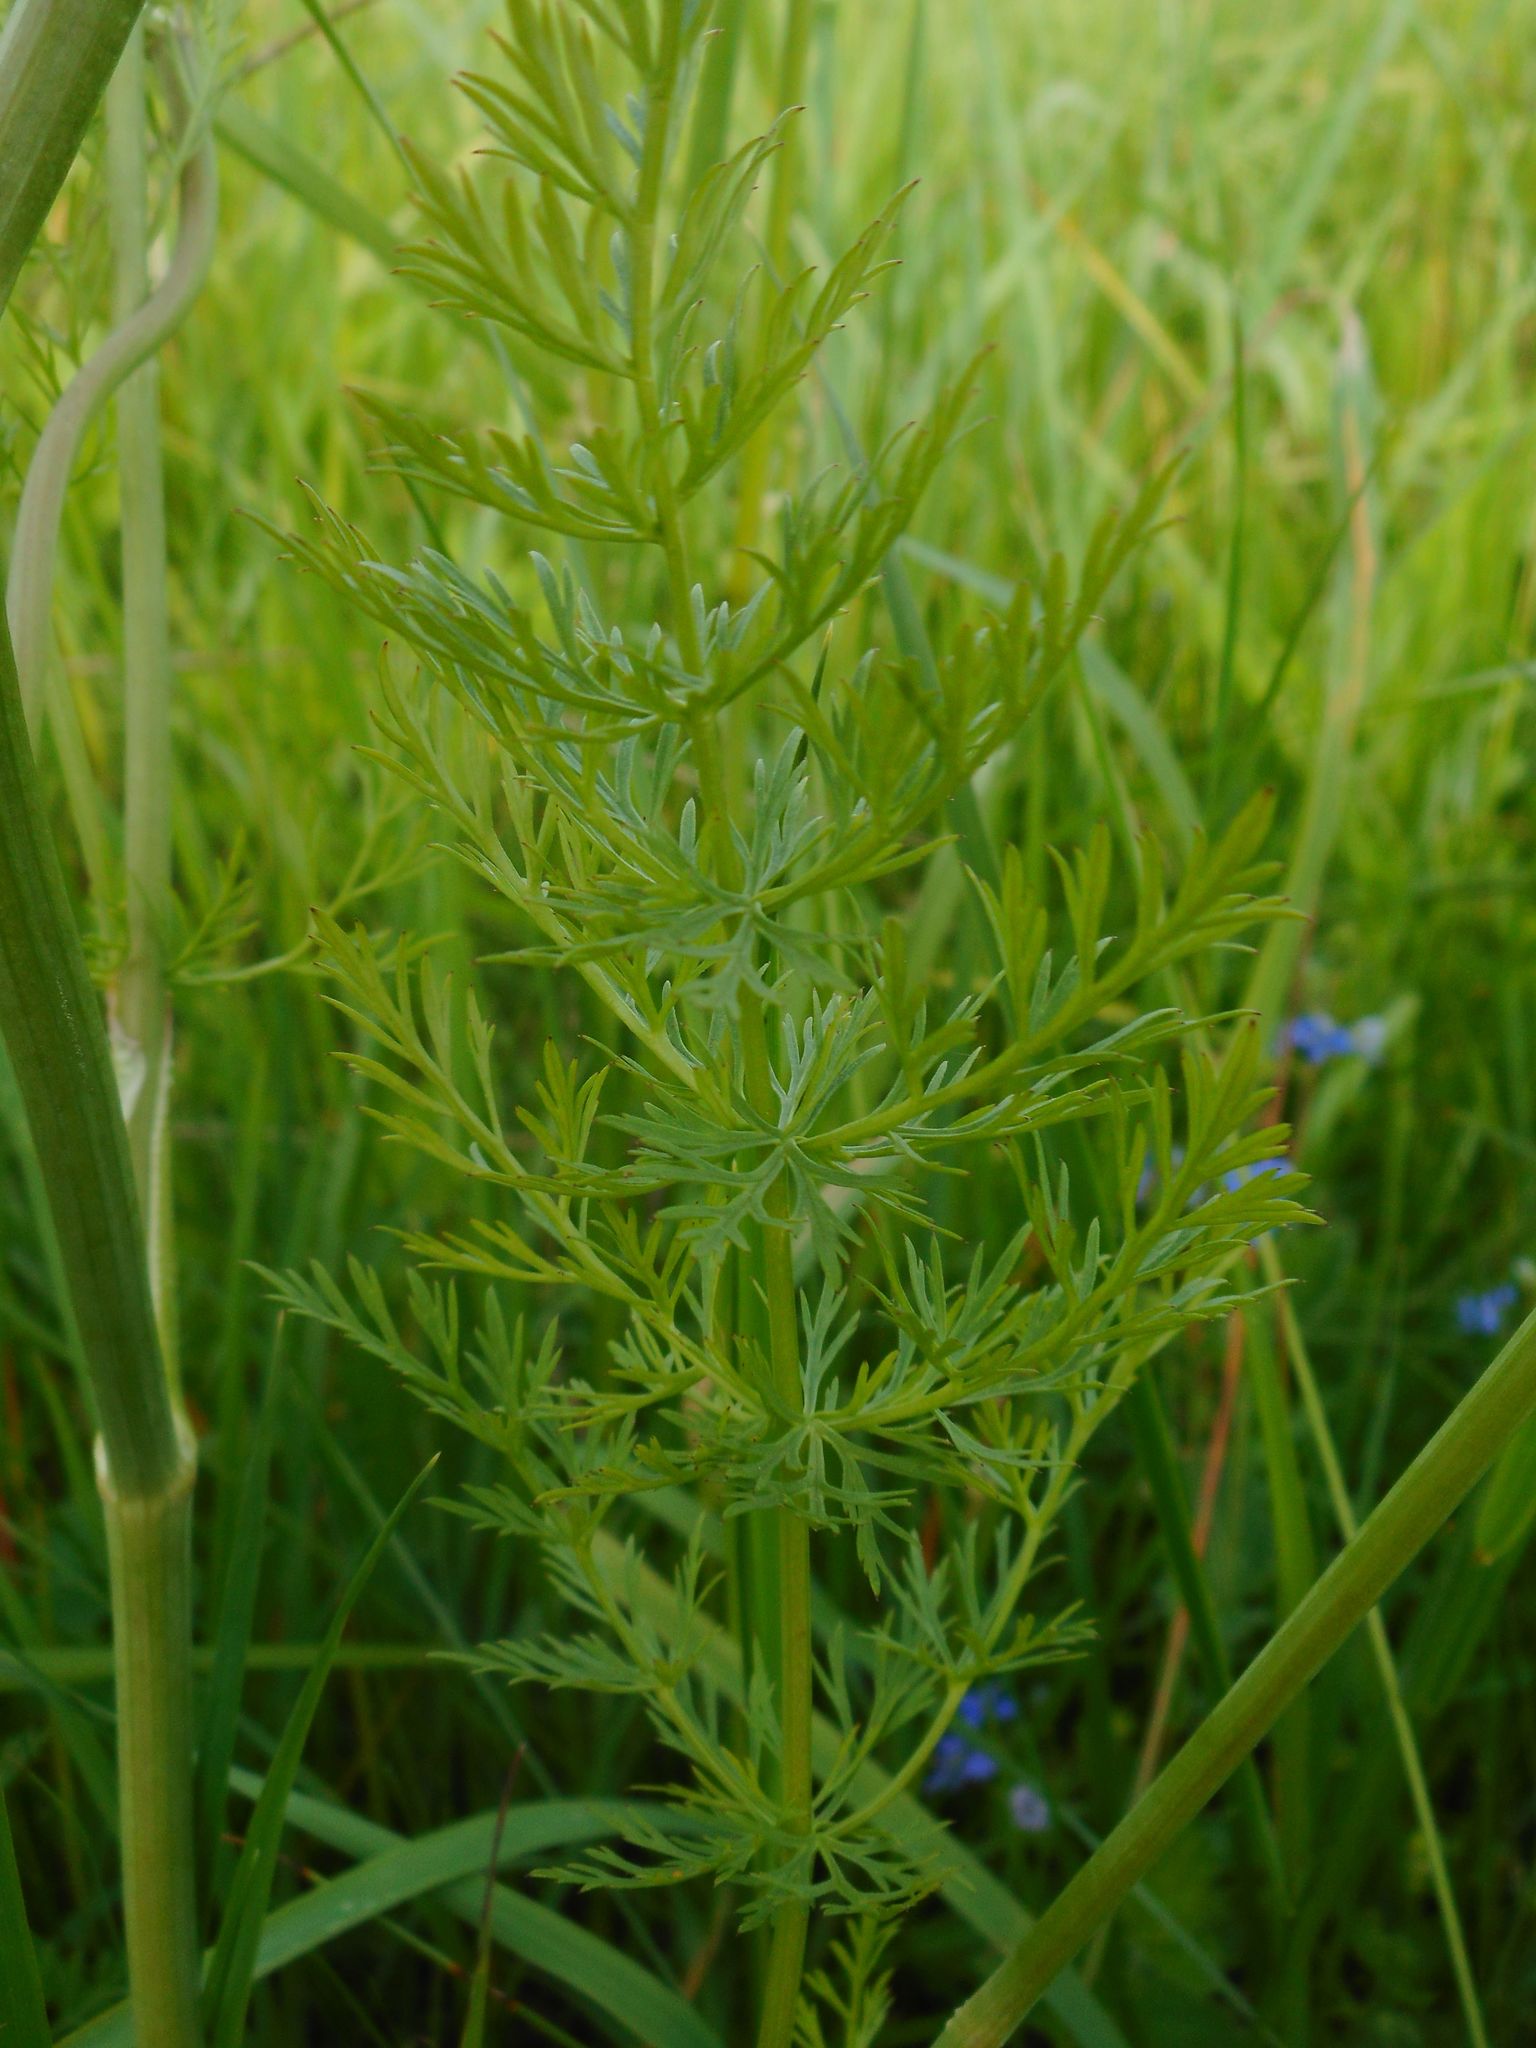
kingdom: Plantae
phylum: Tracheophyta
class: Magnoliopsida
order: Apiales
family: Apiaceae
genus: Carum
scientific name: Carum carvi
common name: Caraway
